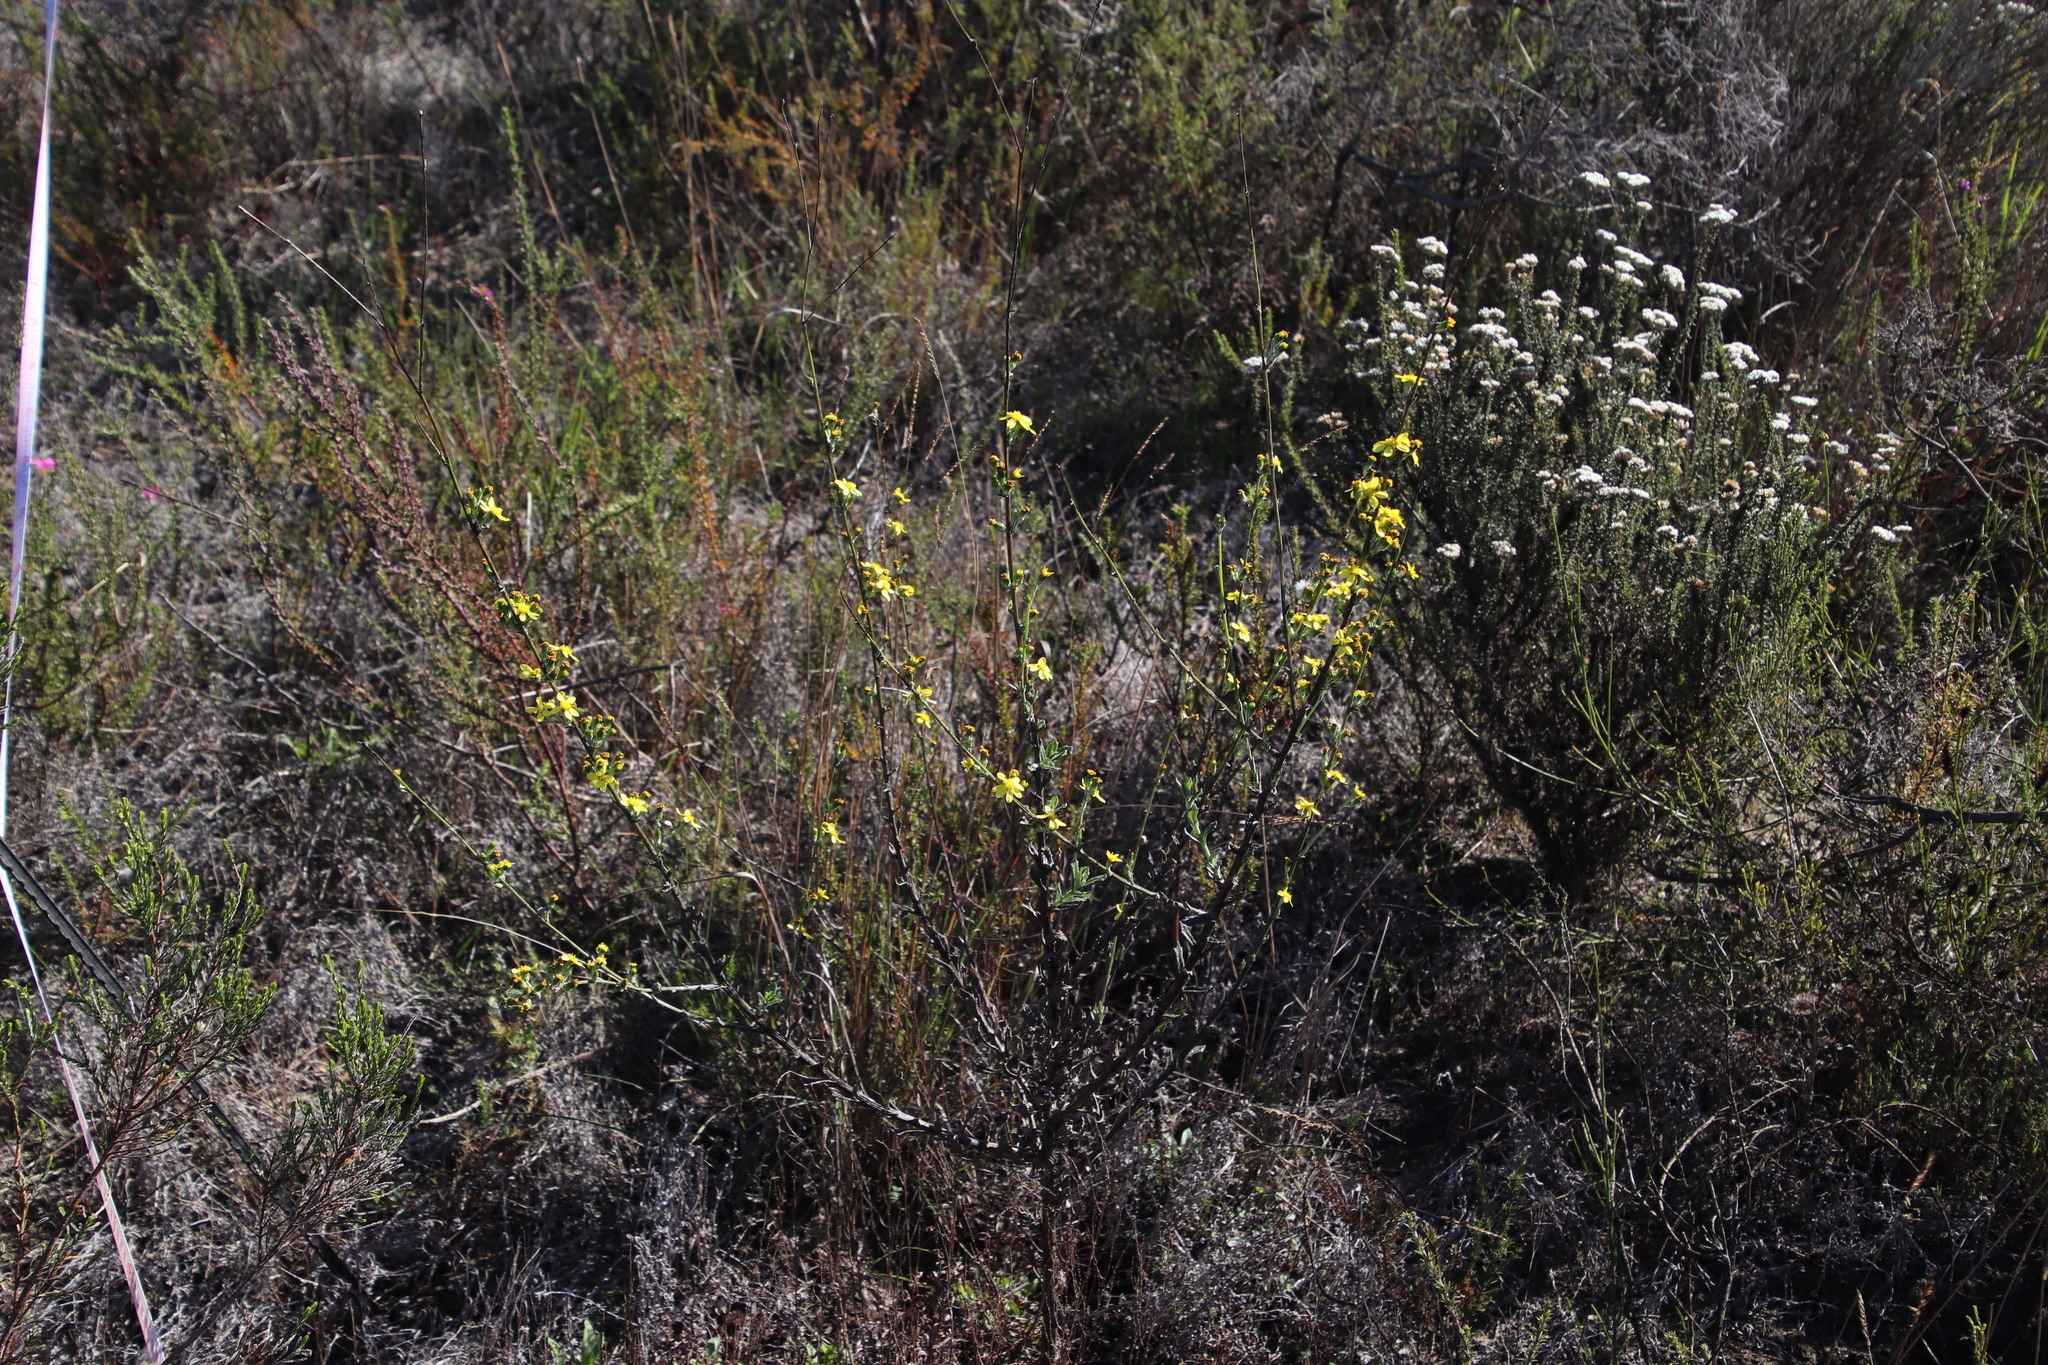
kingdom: Plantae
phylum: Tracheophyta
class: Magnoliopsida
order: Asterales
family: Asteraceae
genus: Senecio
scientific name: Senecio pubigerus
